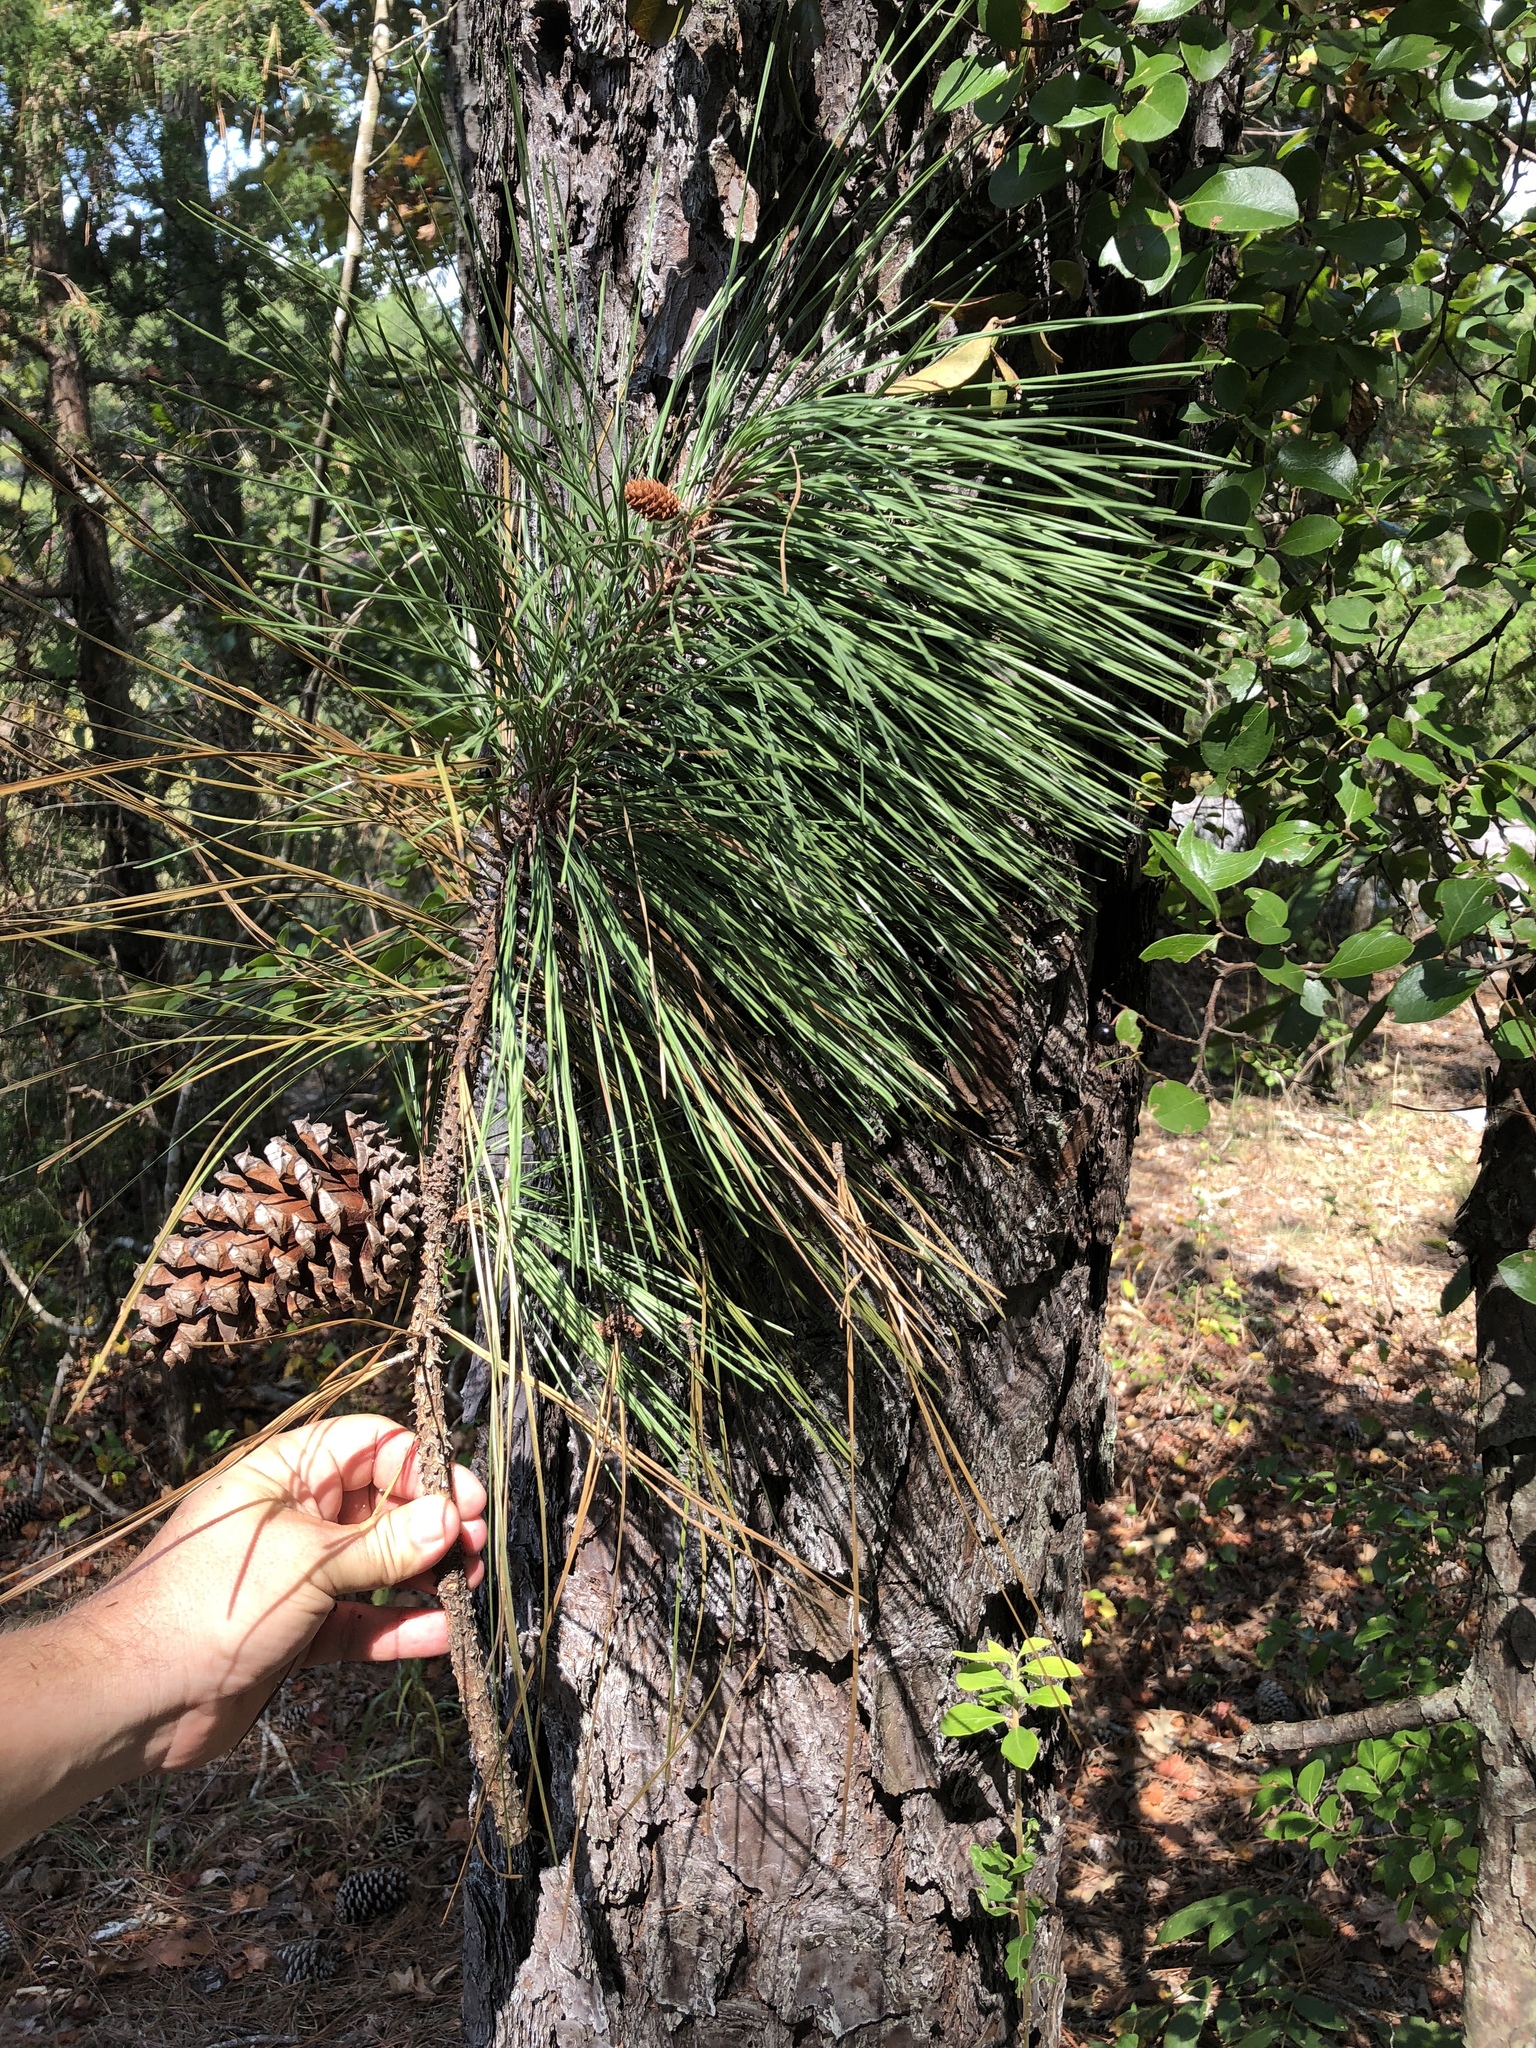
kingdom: Plantae
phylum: Tracheophyta
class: Pinopsida
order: Pinales
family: Pinaceae
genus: Pinus
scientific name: Pinus taeda
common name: Loblolly pine
